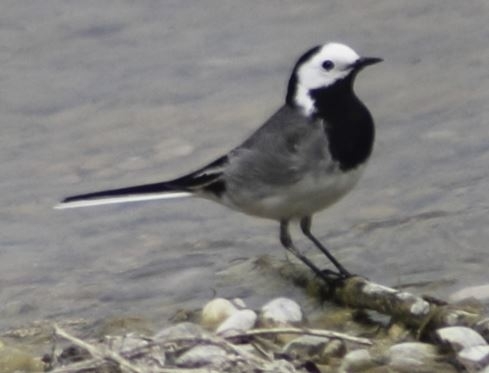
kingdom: Animalia
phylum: Chordata
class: Aves
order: Passeriformes
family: Motacillidae
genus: Motacilla
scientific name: Motacilla alba
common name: White wagtail
